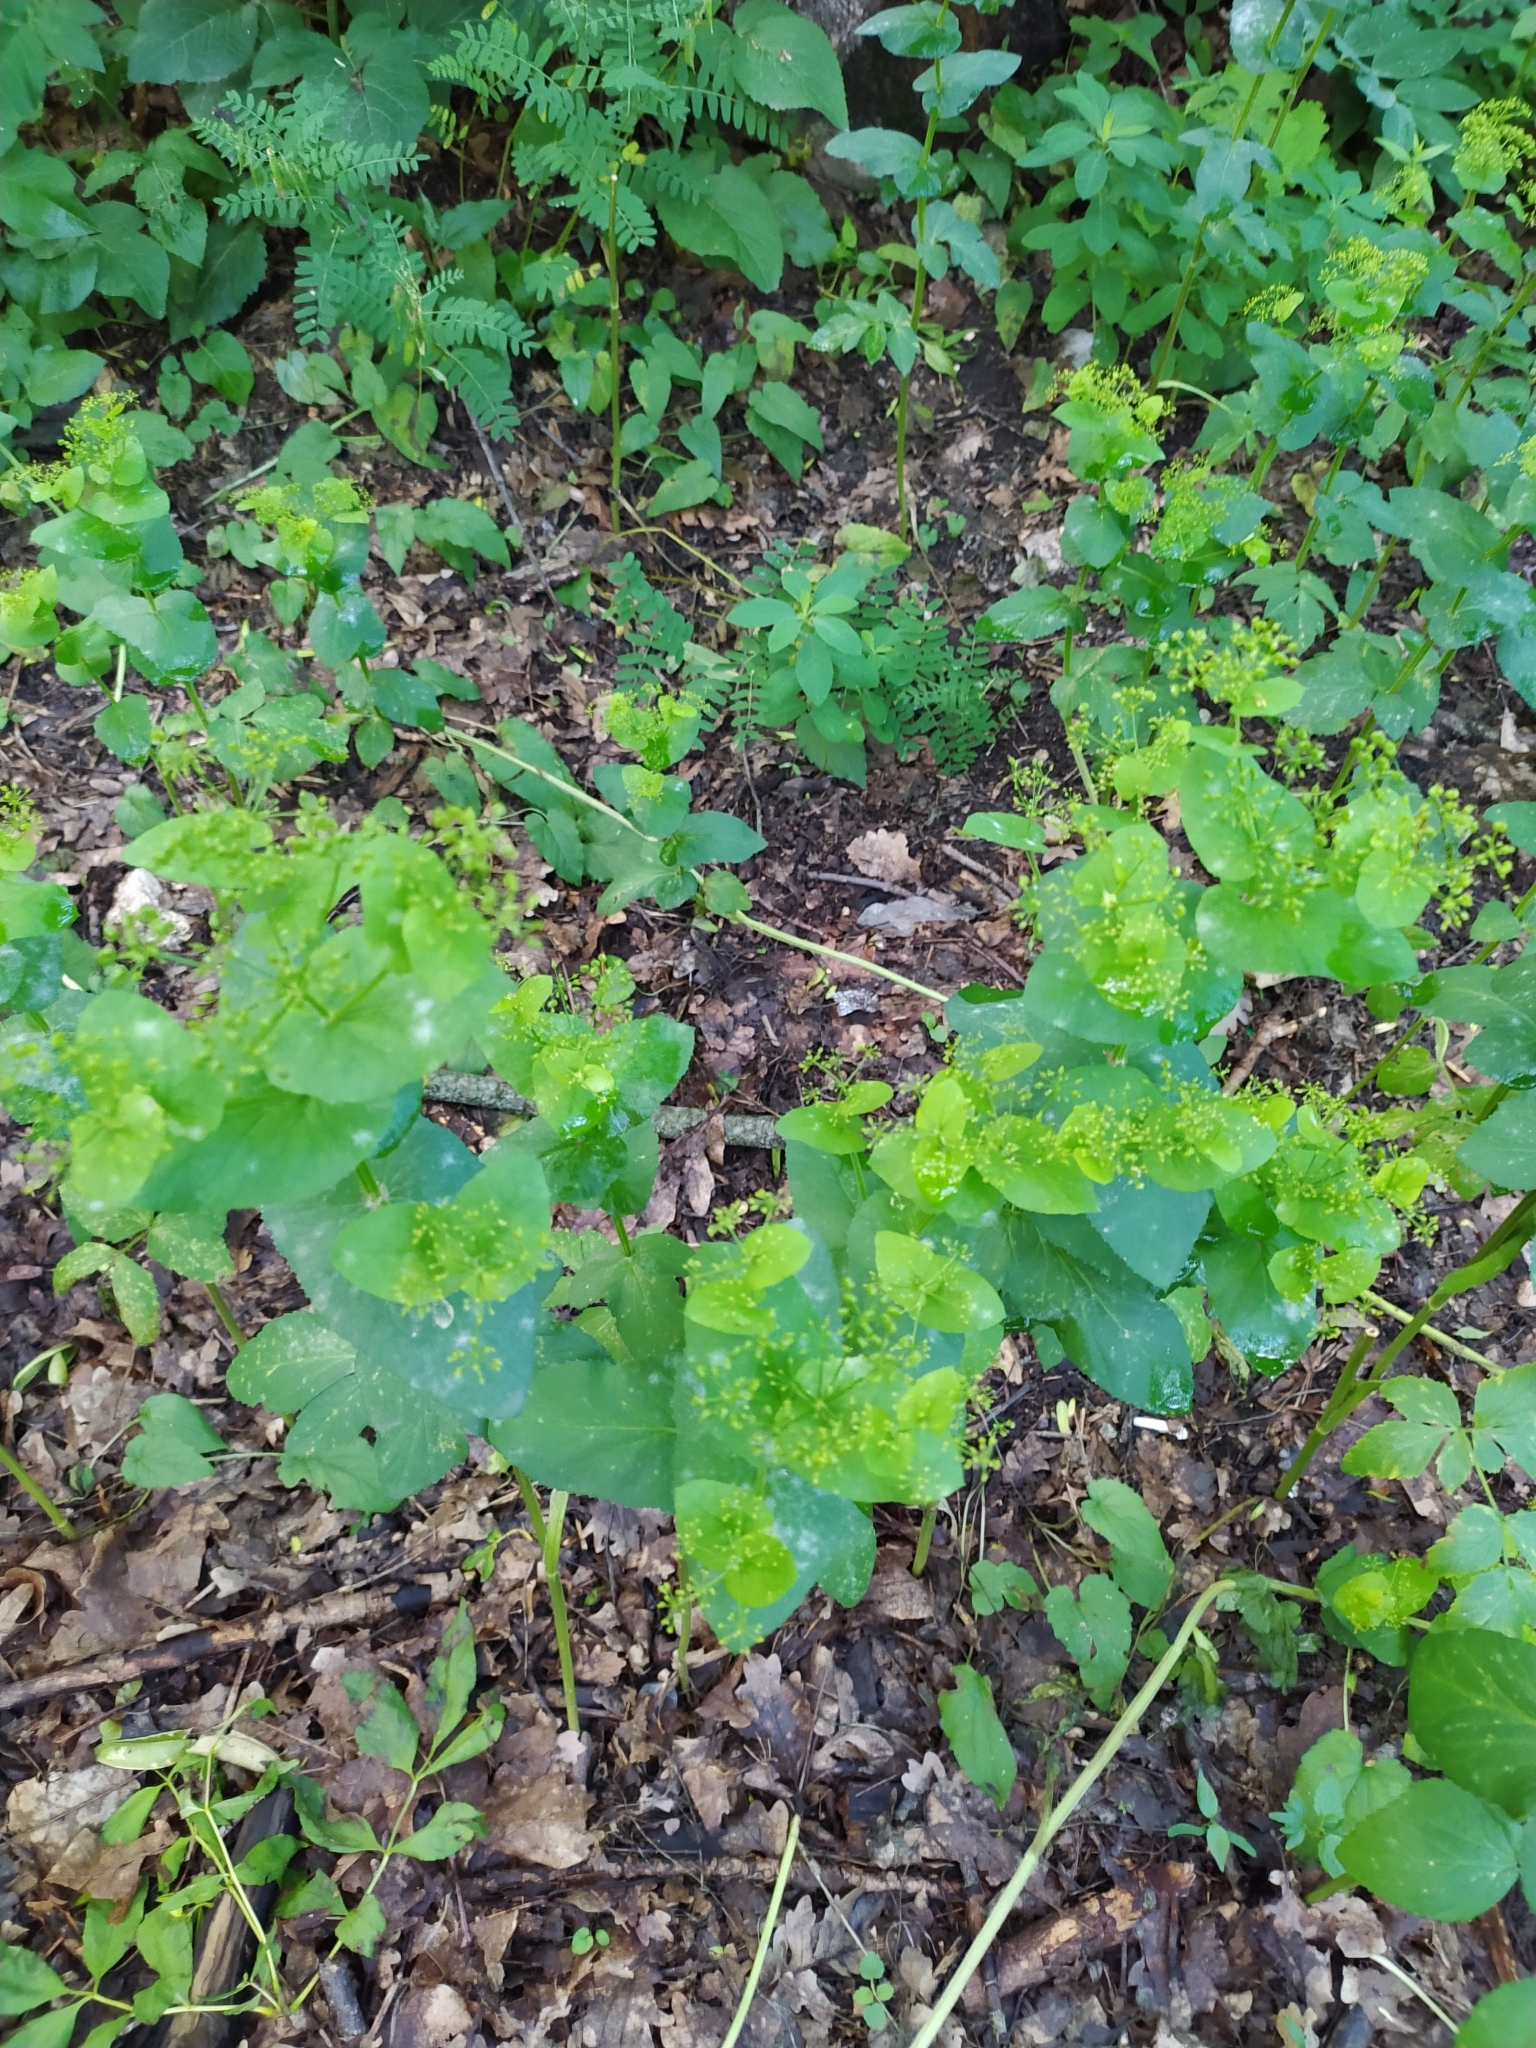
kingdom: Plantae
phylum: Tracheophyta
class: Magnoliopsida
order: Apiales
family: Apiaceae
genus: Bupleurum
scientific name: Bupleurum rotundifolium
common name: Thorow-wax
